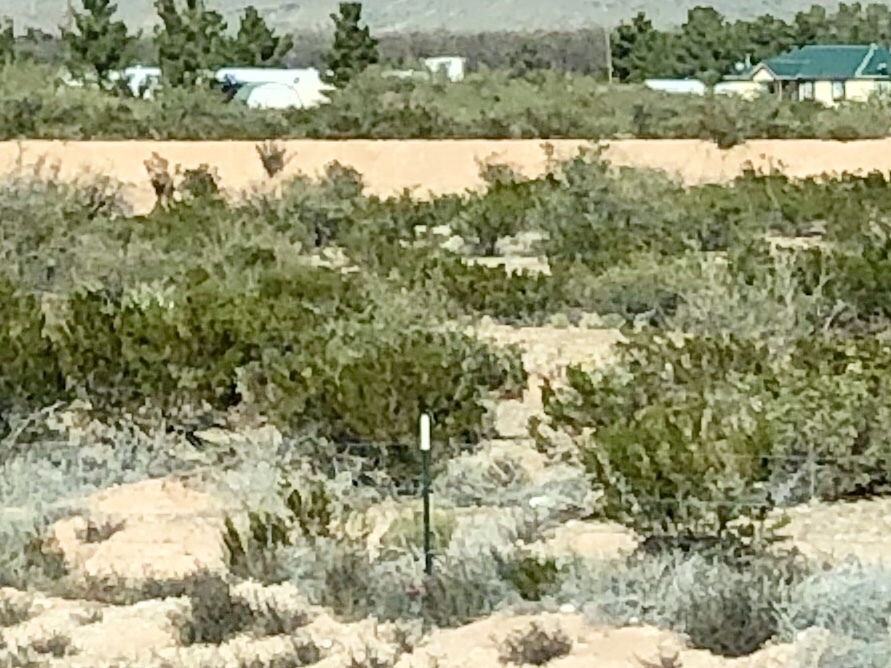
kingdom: Plantae
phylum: Tracheophyta
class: Magnoliopsida
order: Zygophyllales
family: Zygophyllaceae
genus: Larrea
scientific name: Larrea tridentata
